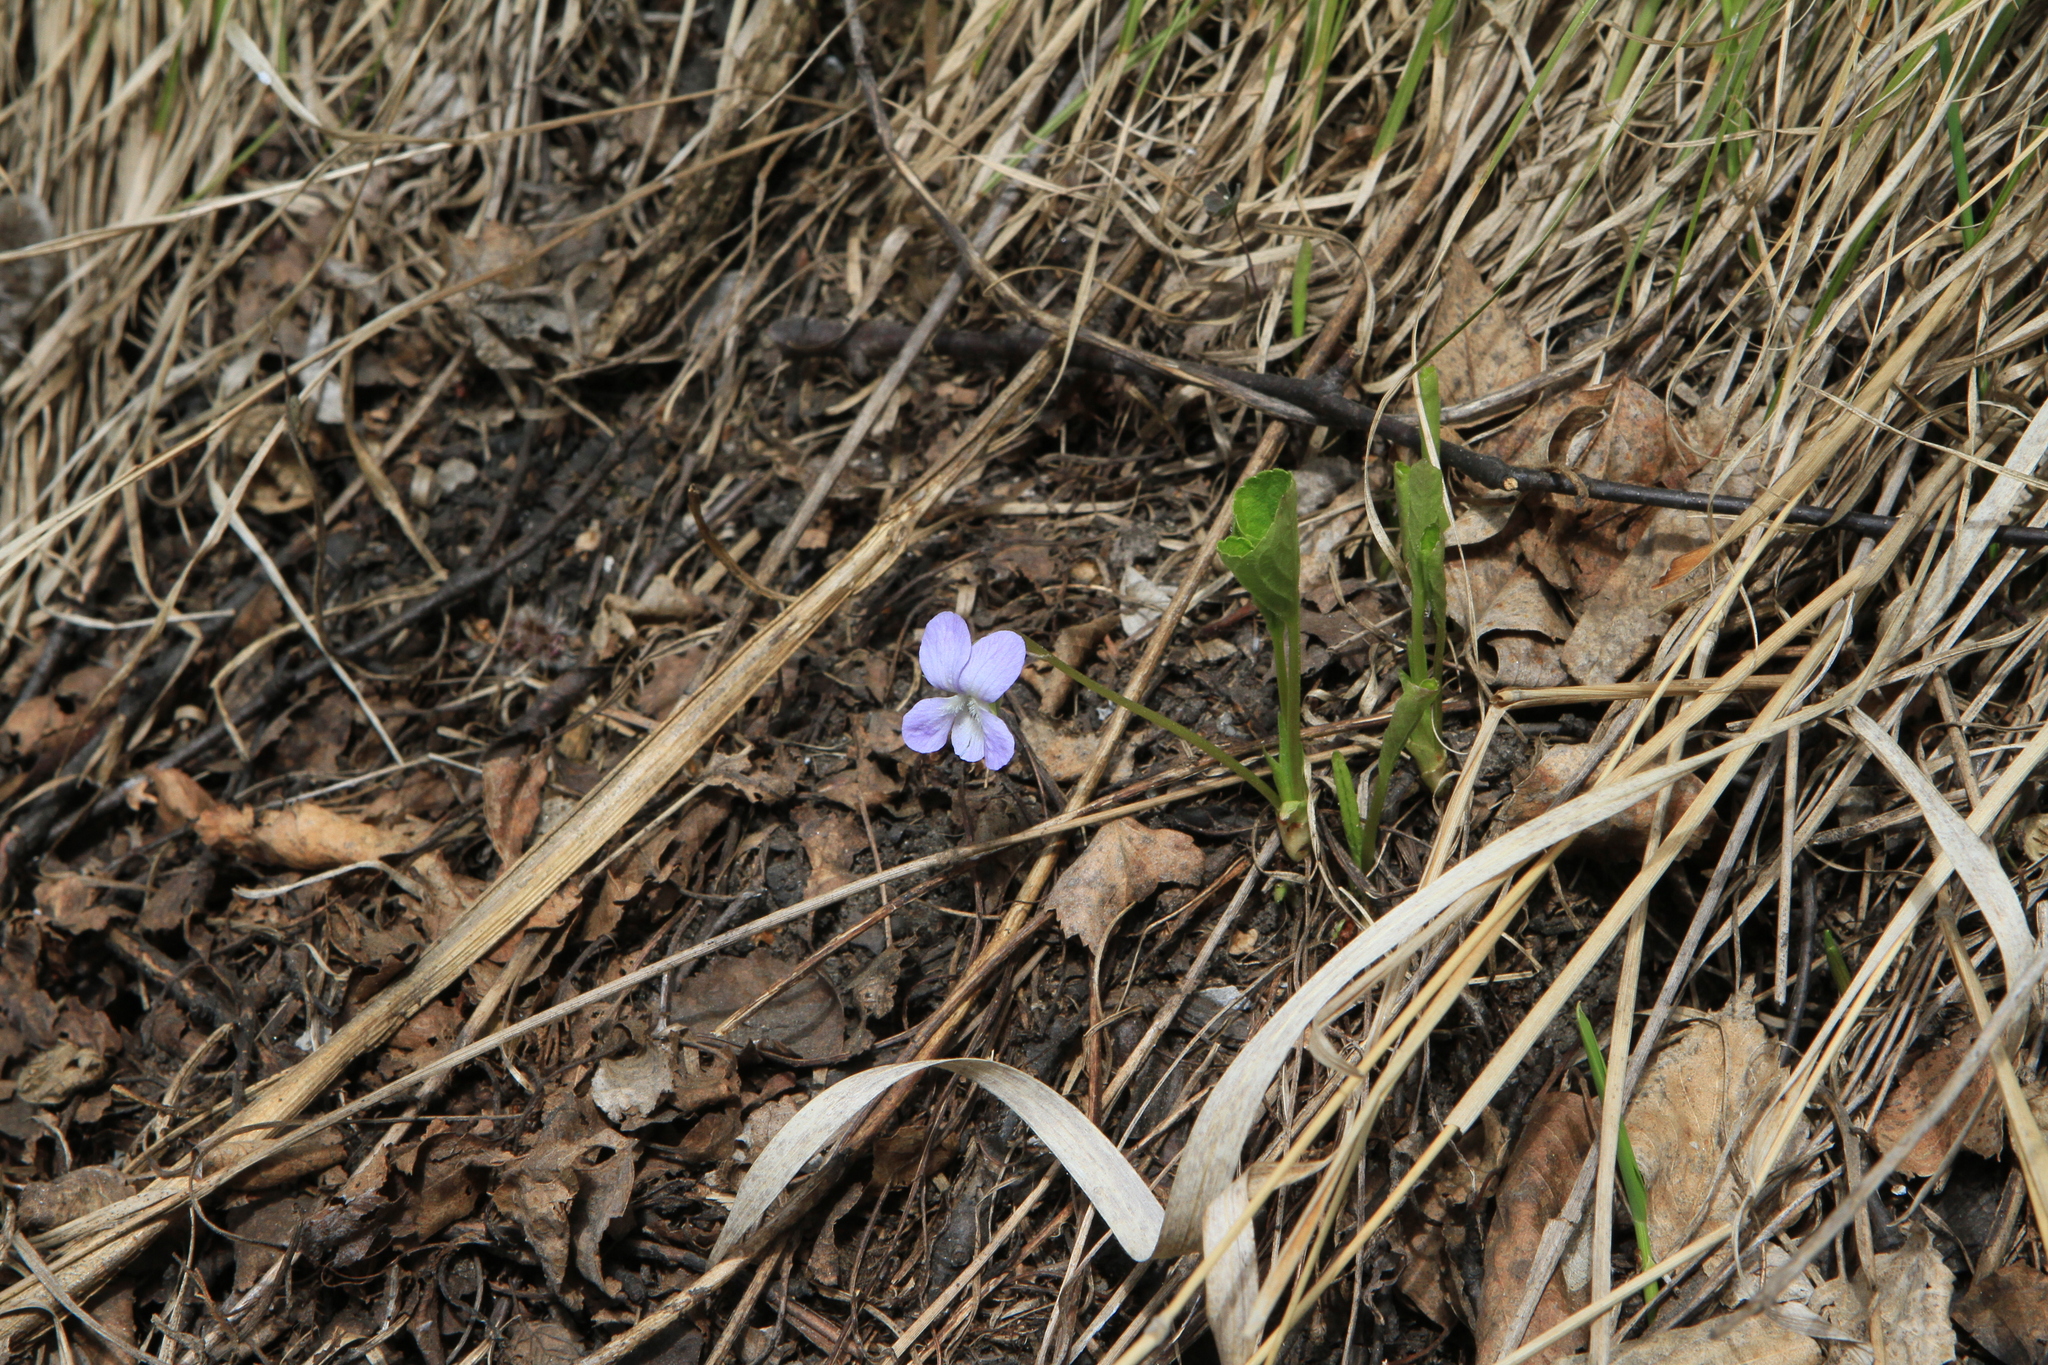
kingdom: Plantae
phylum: Tracheophyta
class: Magnoliopsida
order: Malpighiales
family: Violaceae
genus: Viola
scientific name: Viola mirabilis
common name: Wonder violet
